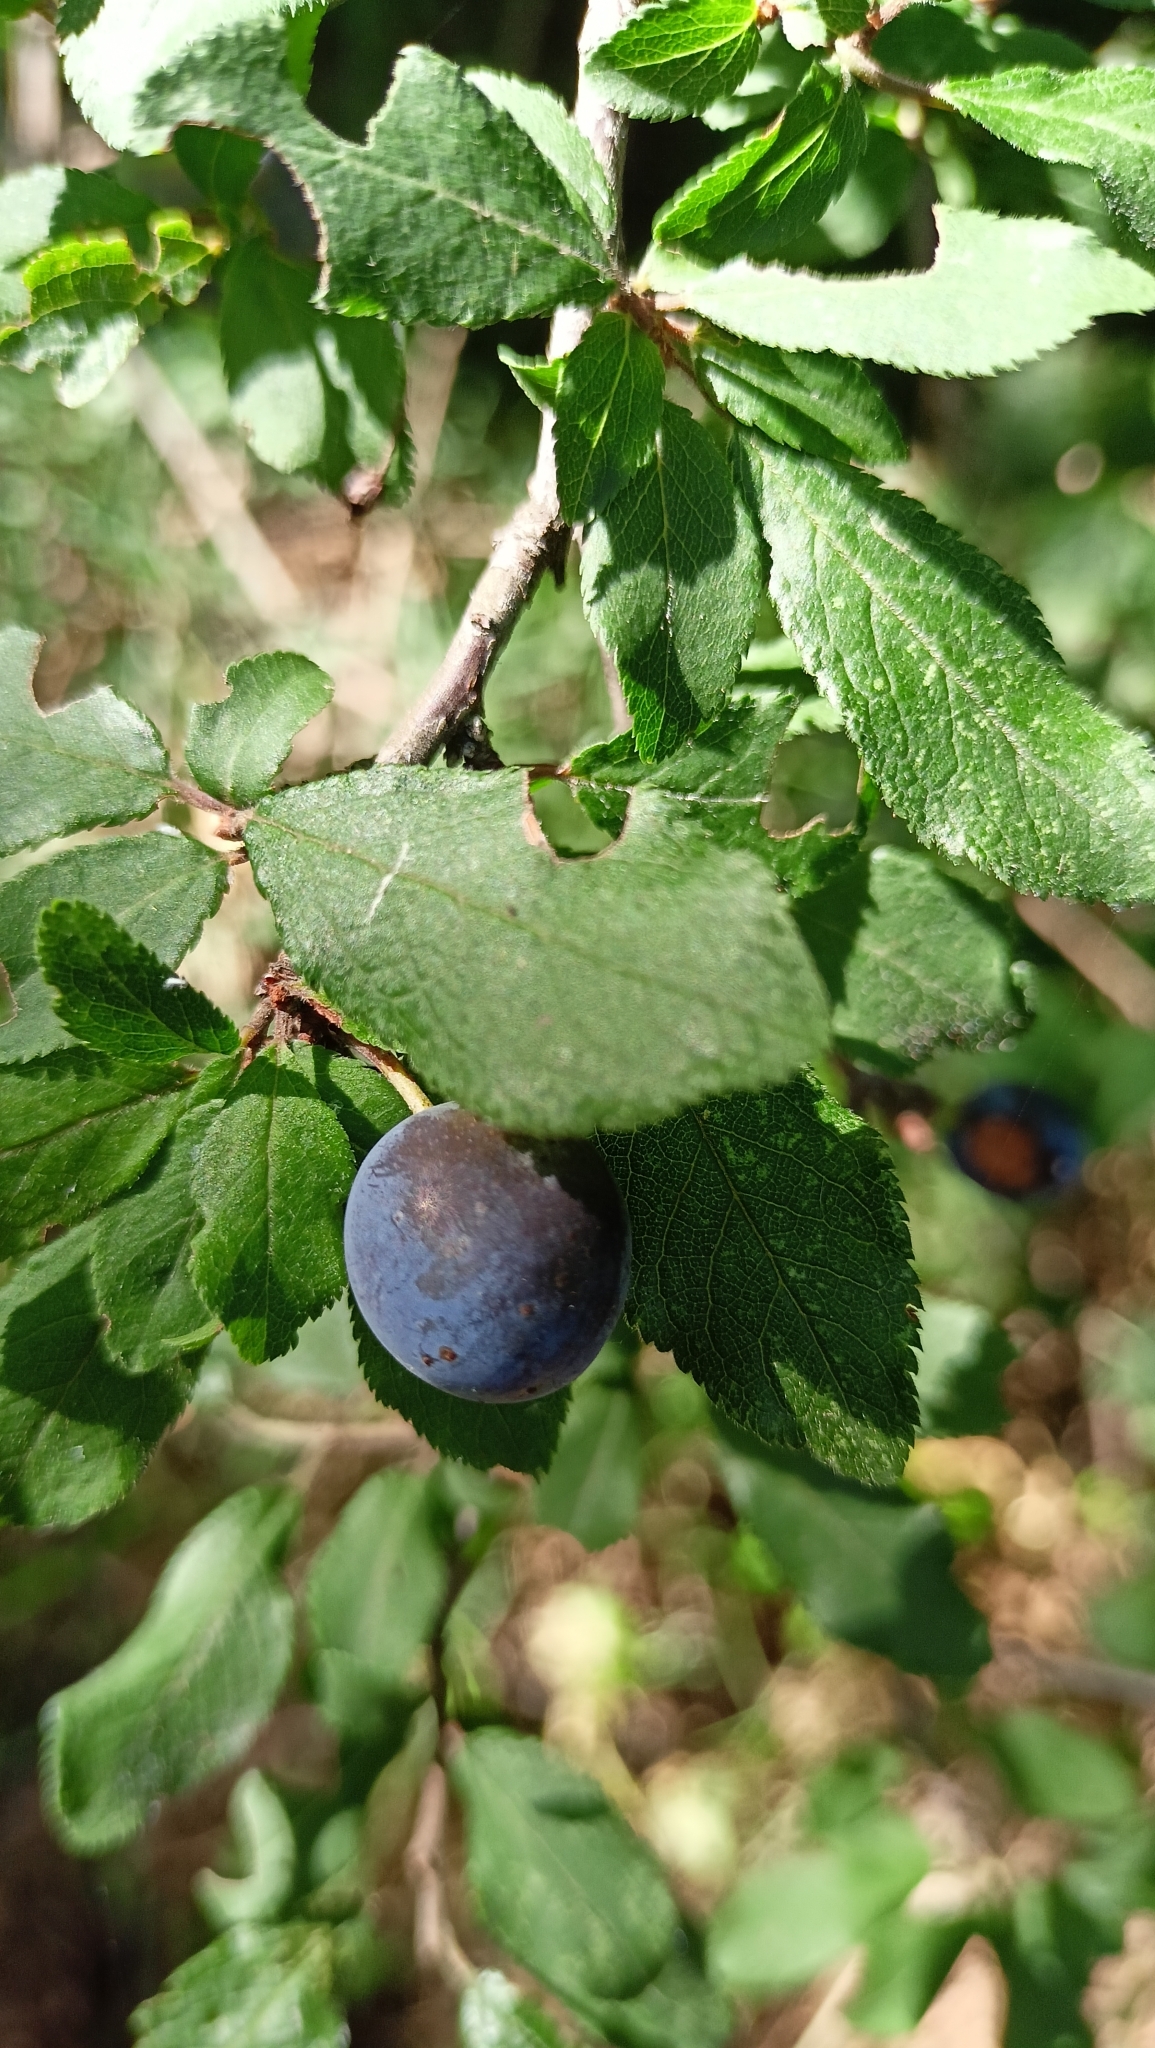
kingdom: Plantae
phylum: Tracheophyta
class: Magnoliopsida
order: Rosales
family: Rosaceae
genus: Prunus
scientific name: Prunus spinosa
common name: Blackthorn
